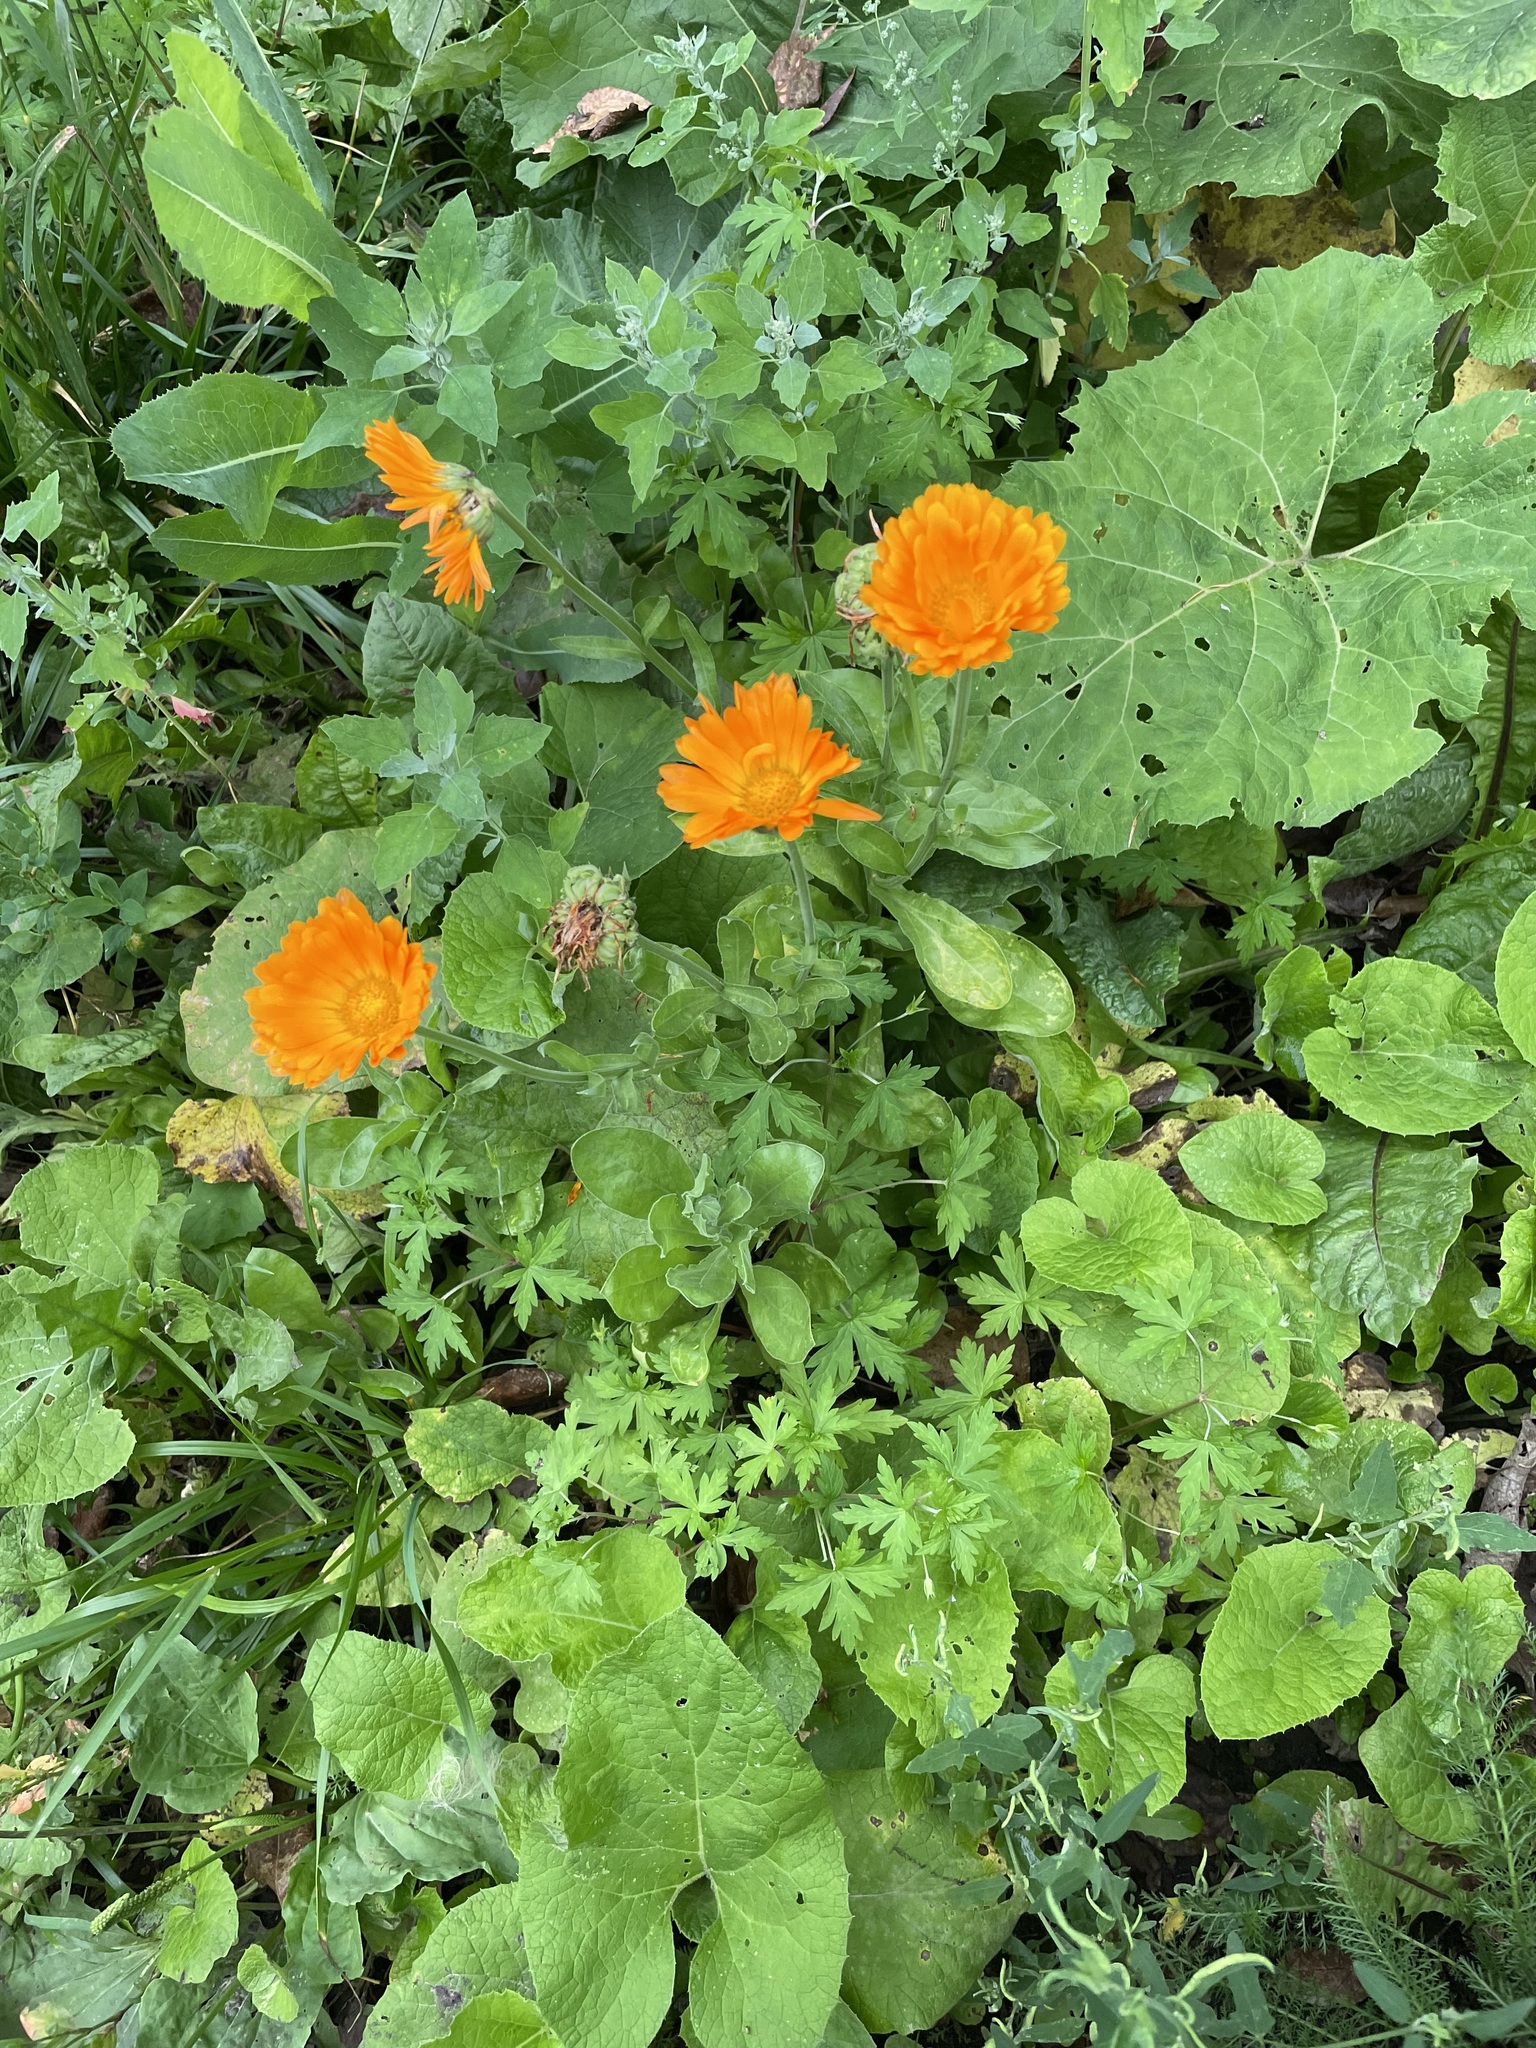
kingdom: Plantae
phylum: Tracheophyta
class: Magnoliopsida
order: Asterales
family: Asteraceae
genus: Calendula
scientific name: Calendula officinalis
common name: Pot marigold
